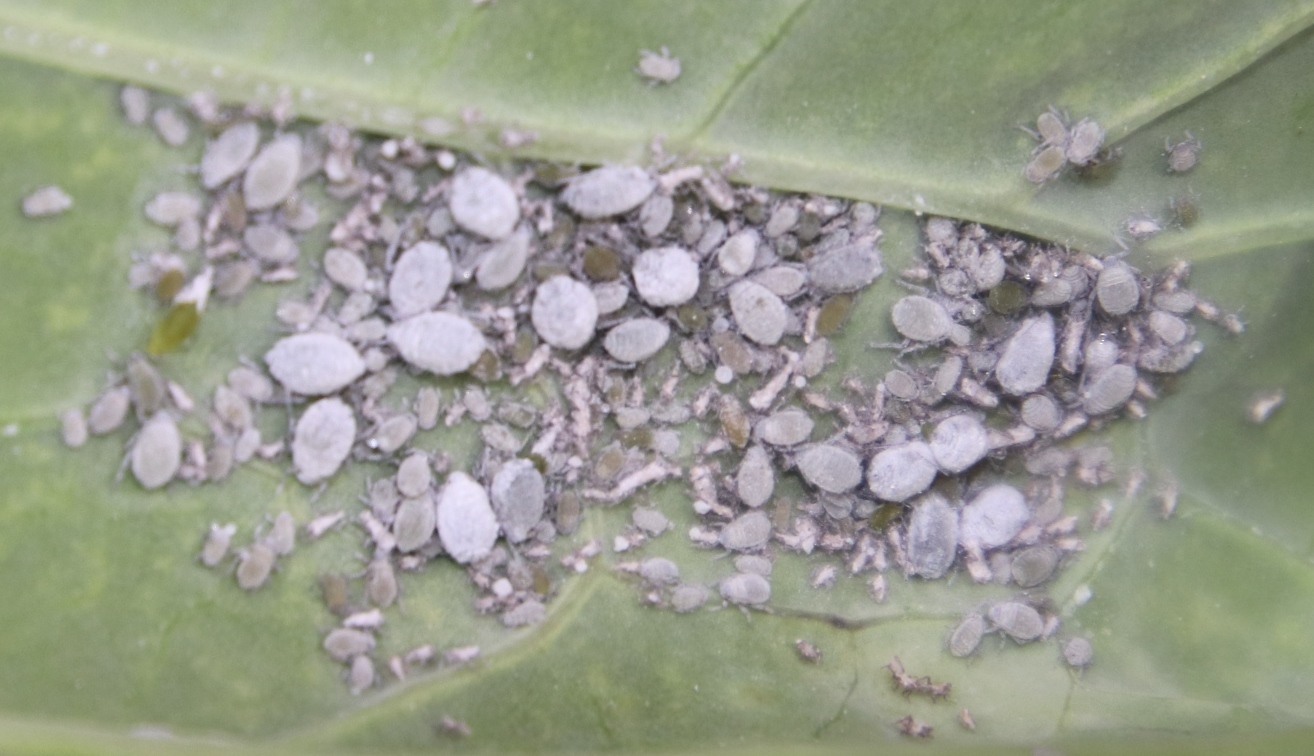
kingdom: Animalia
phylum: Arthropoda
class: Insecta
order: Hemiptera
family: Aphididae
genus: Brevicoryne
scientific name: Brevicoryne brassicae
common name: Cabbage aphid
